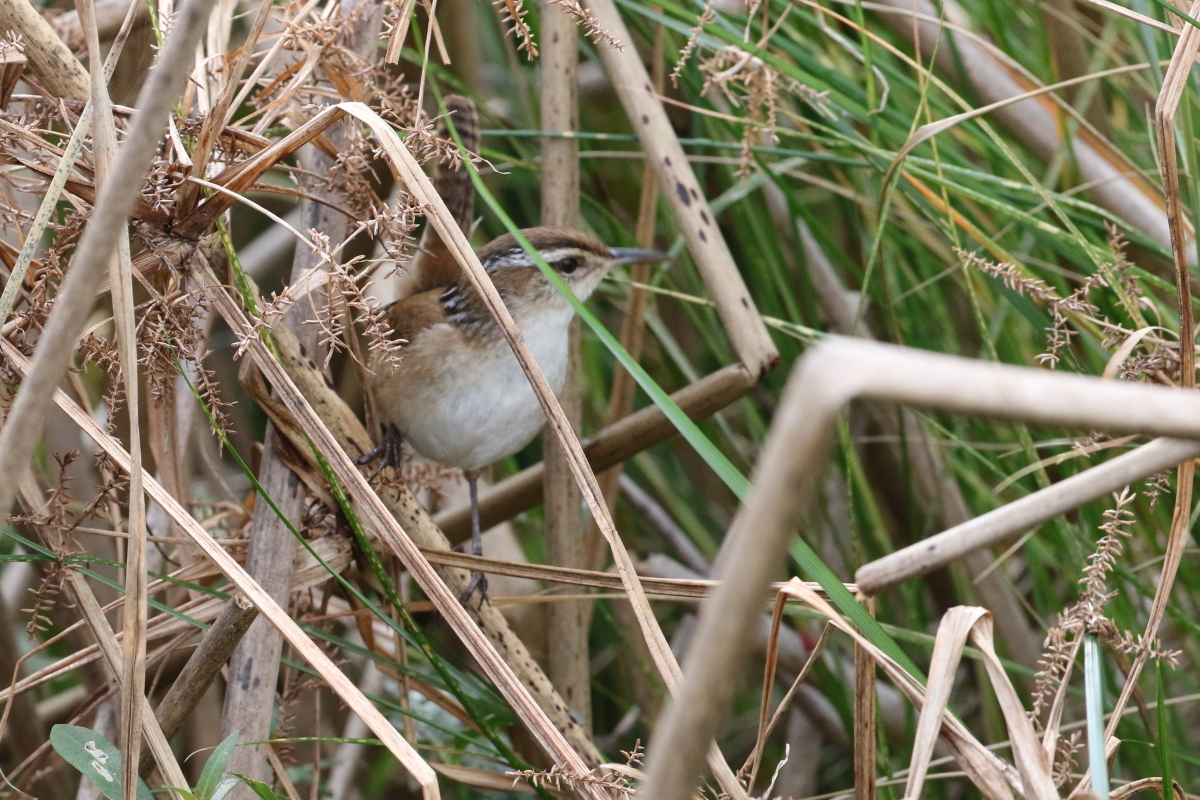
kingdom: Animalia
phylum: Chordata
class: Aves
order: Passeriformes
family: Troglodytidae
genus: Cistothorus
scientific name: Cistothorus palustris
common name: Marsh wren
